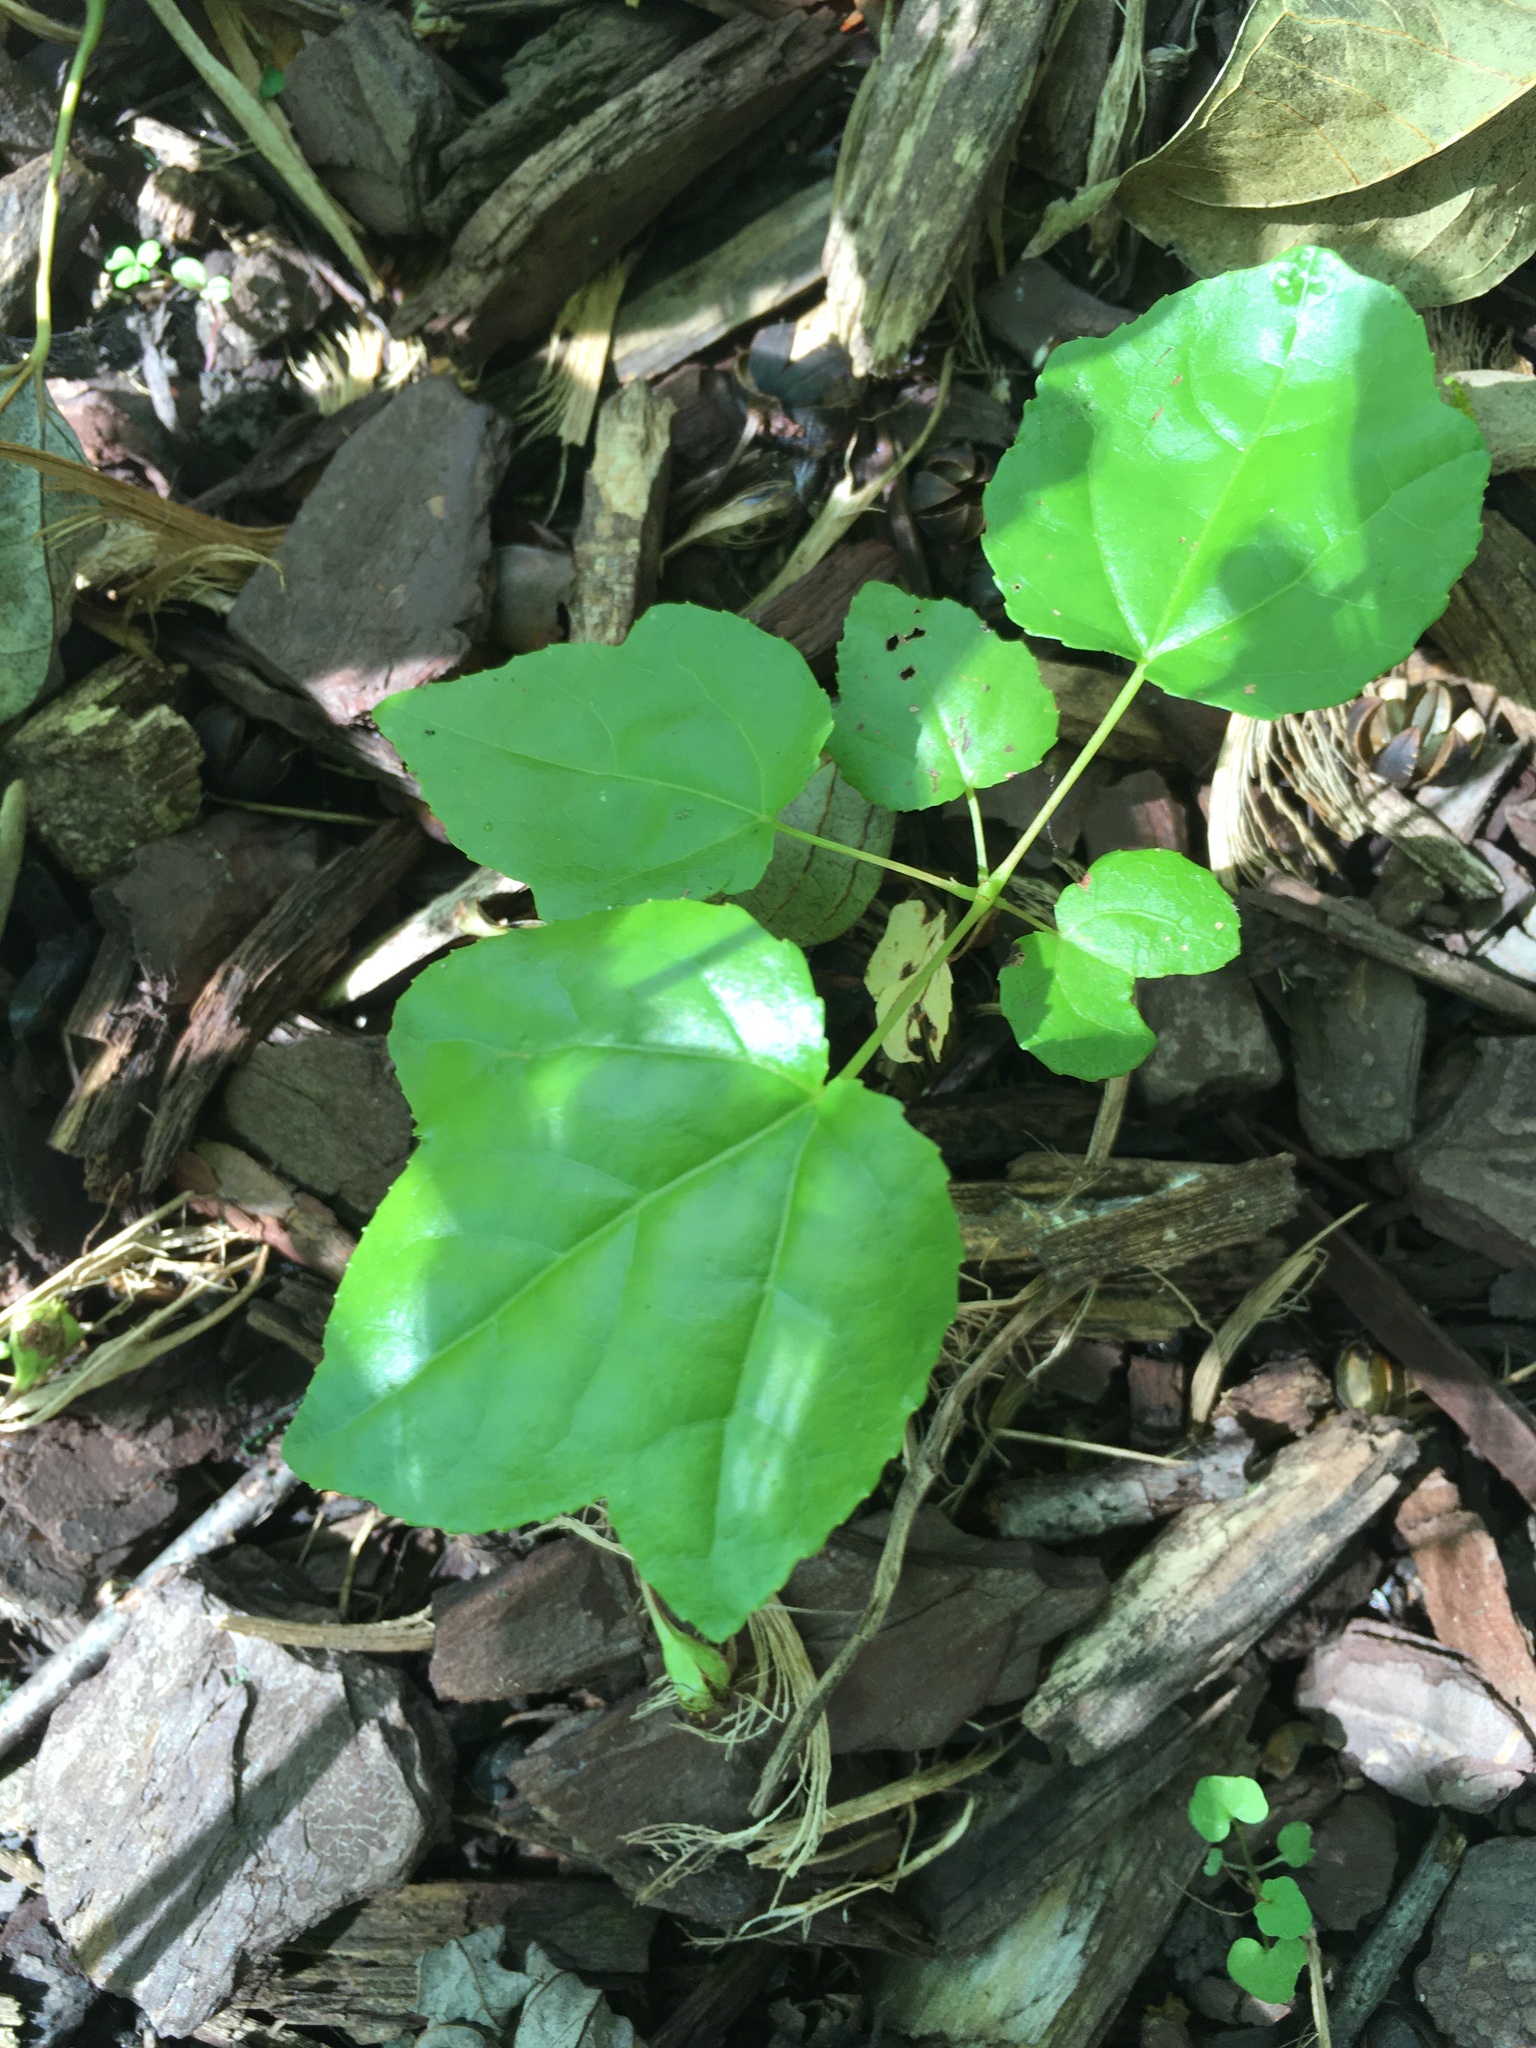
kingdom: Plantae
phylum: Tracheophyta
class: Magnoliopsida
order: Saxifragales
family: Altingiaceae
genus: Liquidambar
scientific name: Liquidambar styraciflua
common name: Sweet gum
